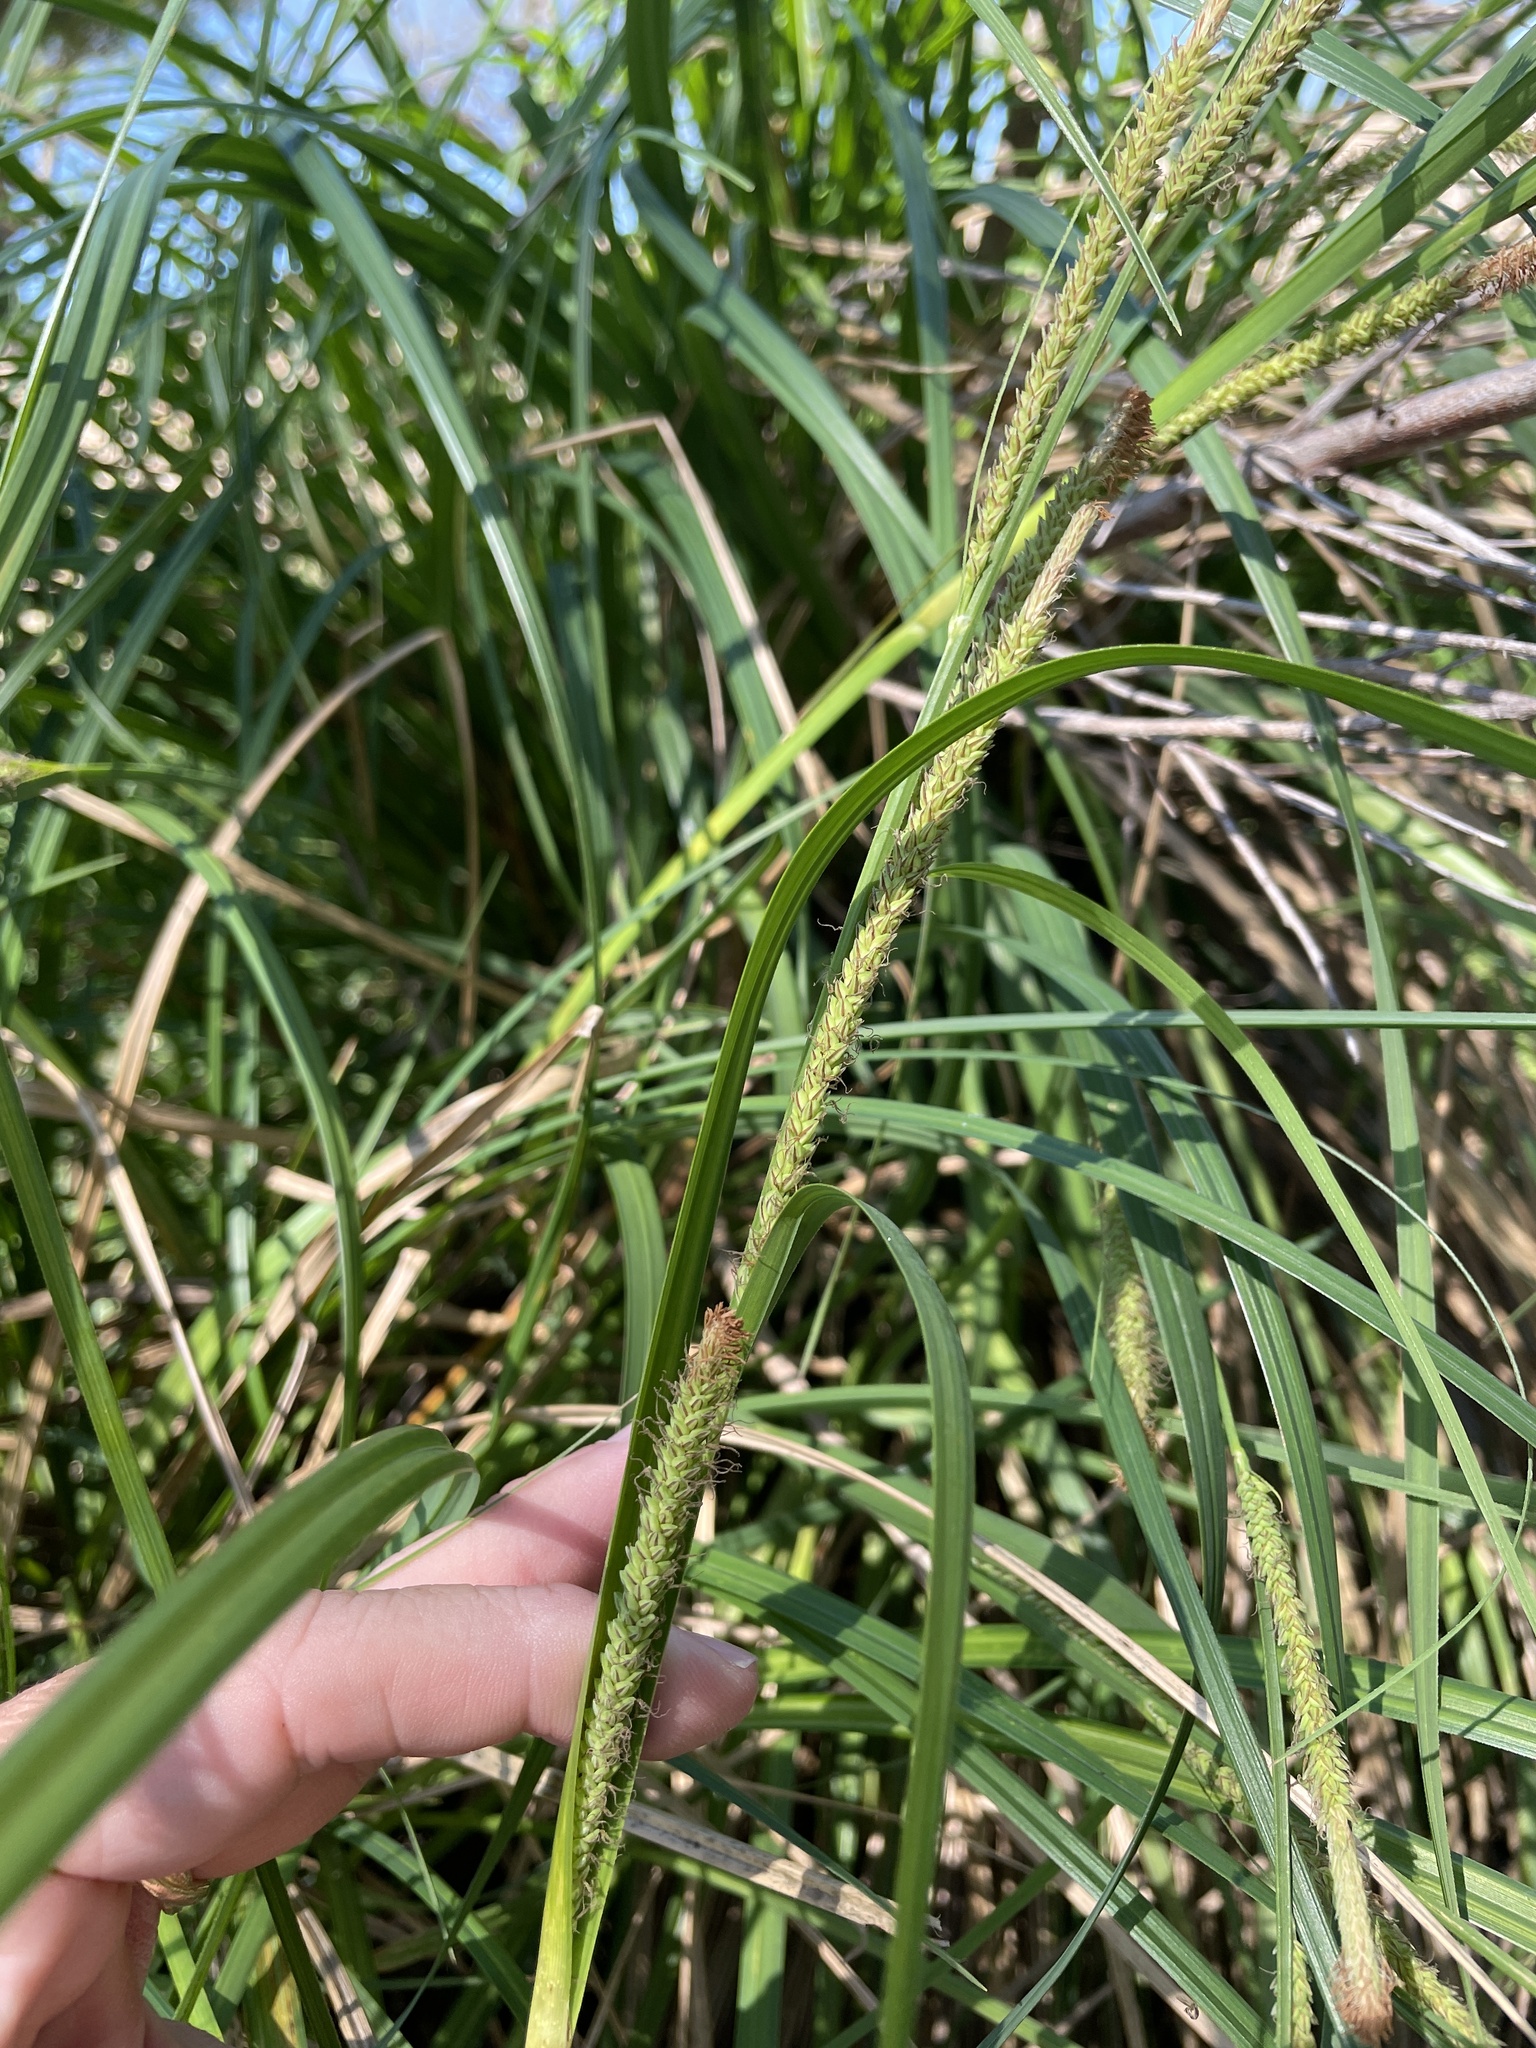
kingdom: Plantae
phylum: Tracheophyta
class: Liliopsida
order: Poales
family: Cyperaceae
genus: Carex
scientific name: Carex emoryi
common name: Emory's sedge
